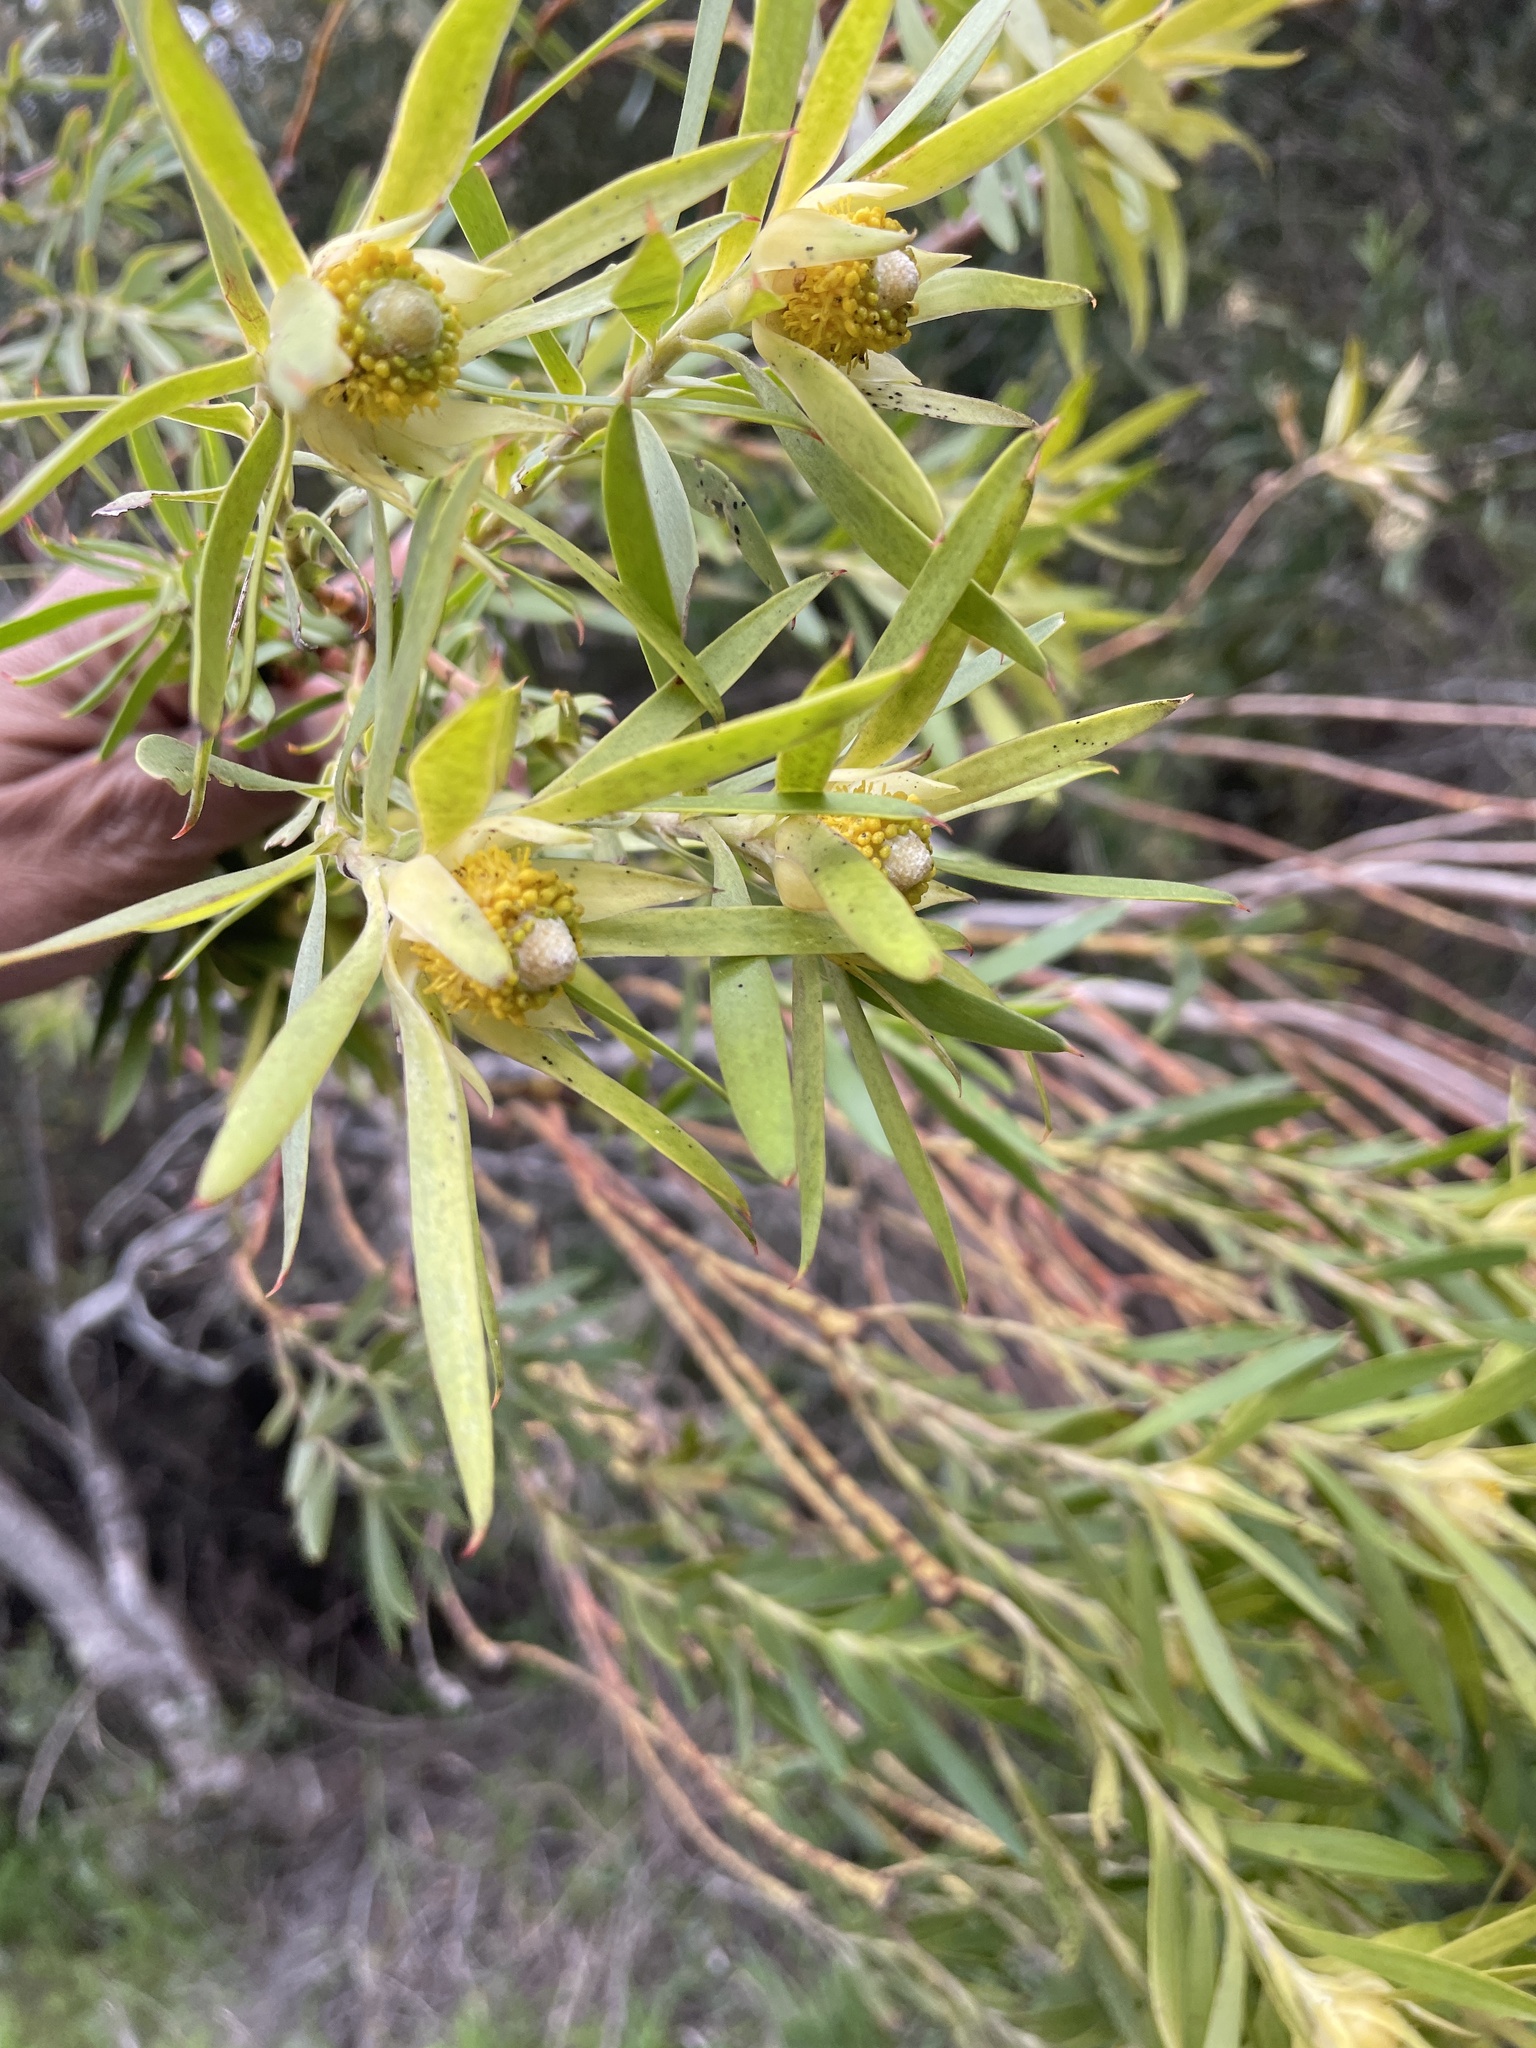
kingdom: Plantae
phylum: Tracheophyta
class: Magnoliopsida
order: Proteales
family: Proteaceae
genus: Leucadendron
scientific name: Leucadendron meridianum
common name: Limestone conebush
